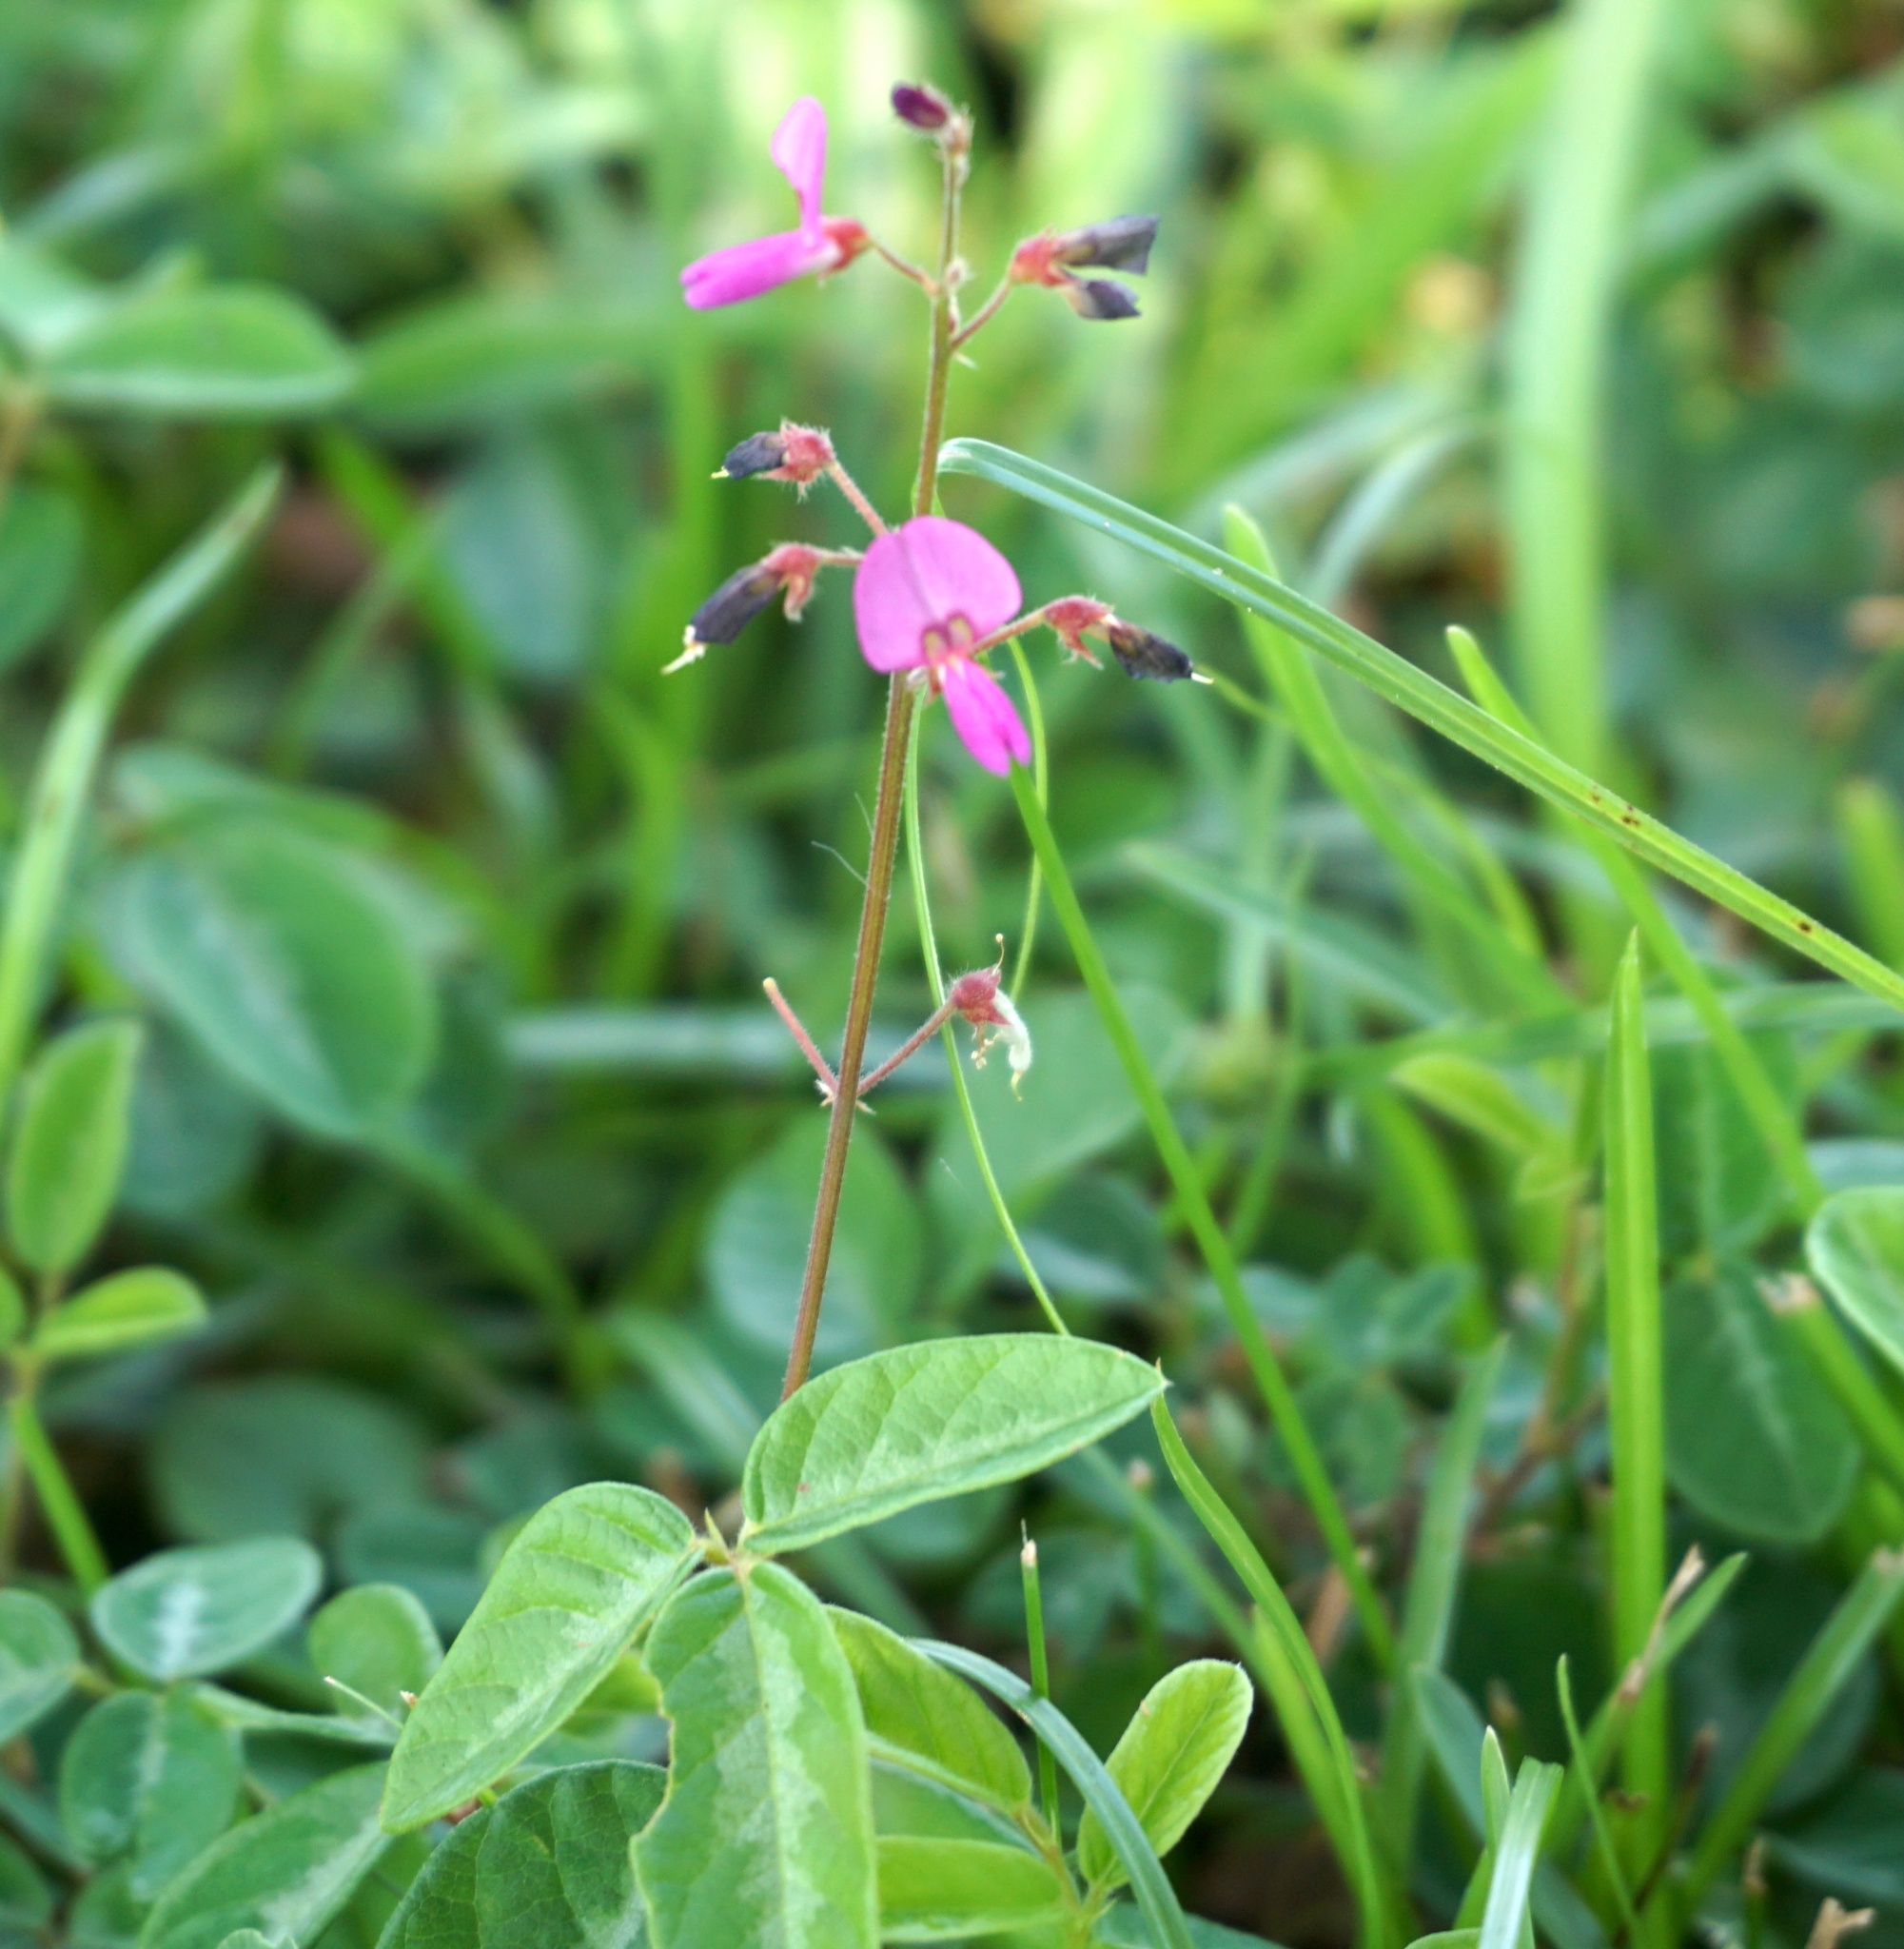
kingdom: Plantae
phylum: Tracheophyta
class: Magnoliopsida
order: Fabales
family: Fabaceae
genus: Desmodium
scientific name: Desmodium incanum
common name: Tickclover
